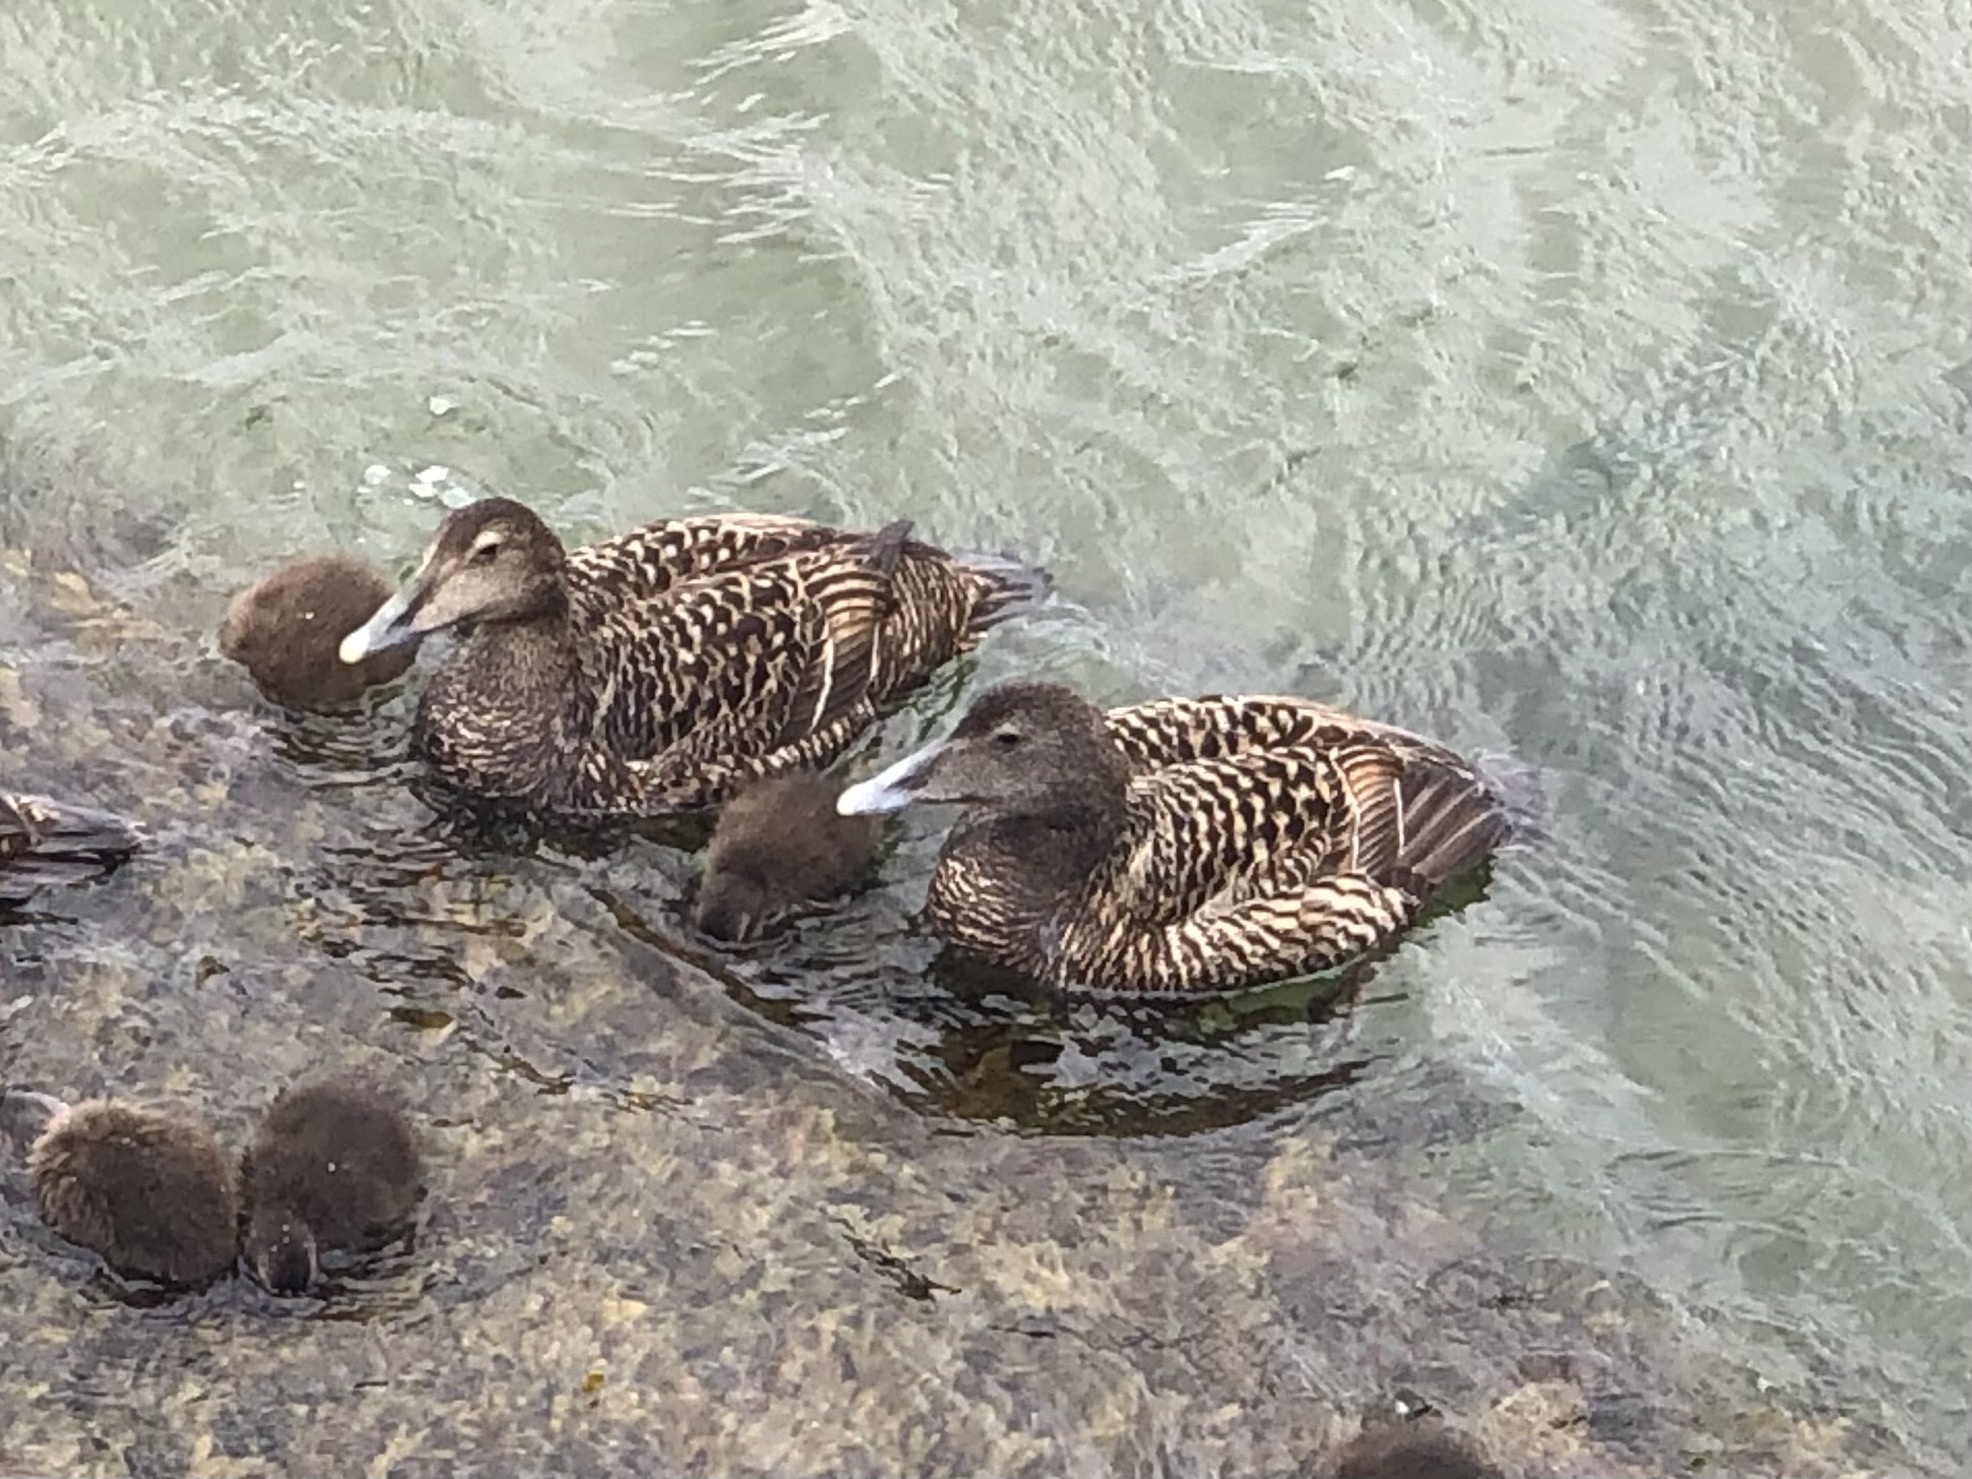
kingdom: Animalia
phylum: Chordata
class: Aves
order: Anseriformes
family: Anatidae
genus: Somateria
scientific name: Somateria mollissima
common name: Common eider
